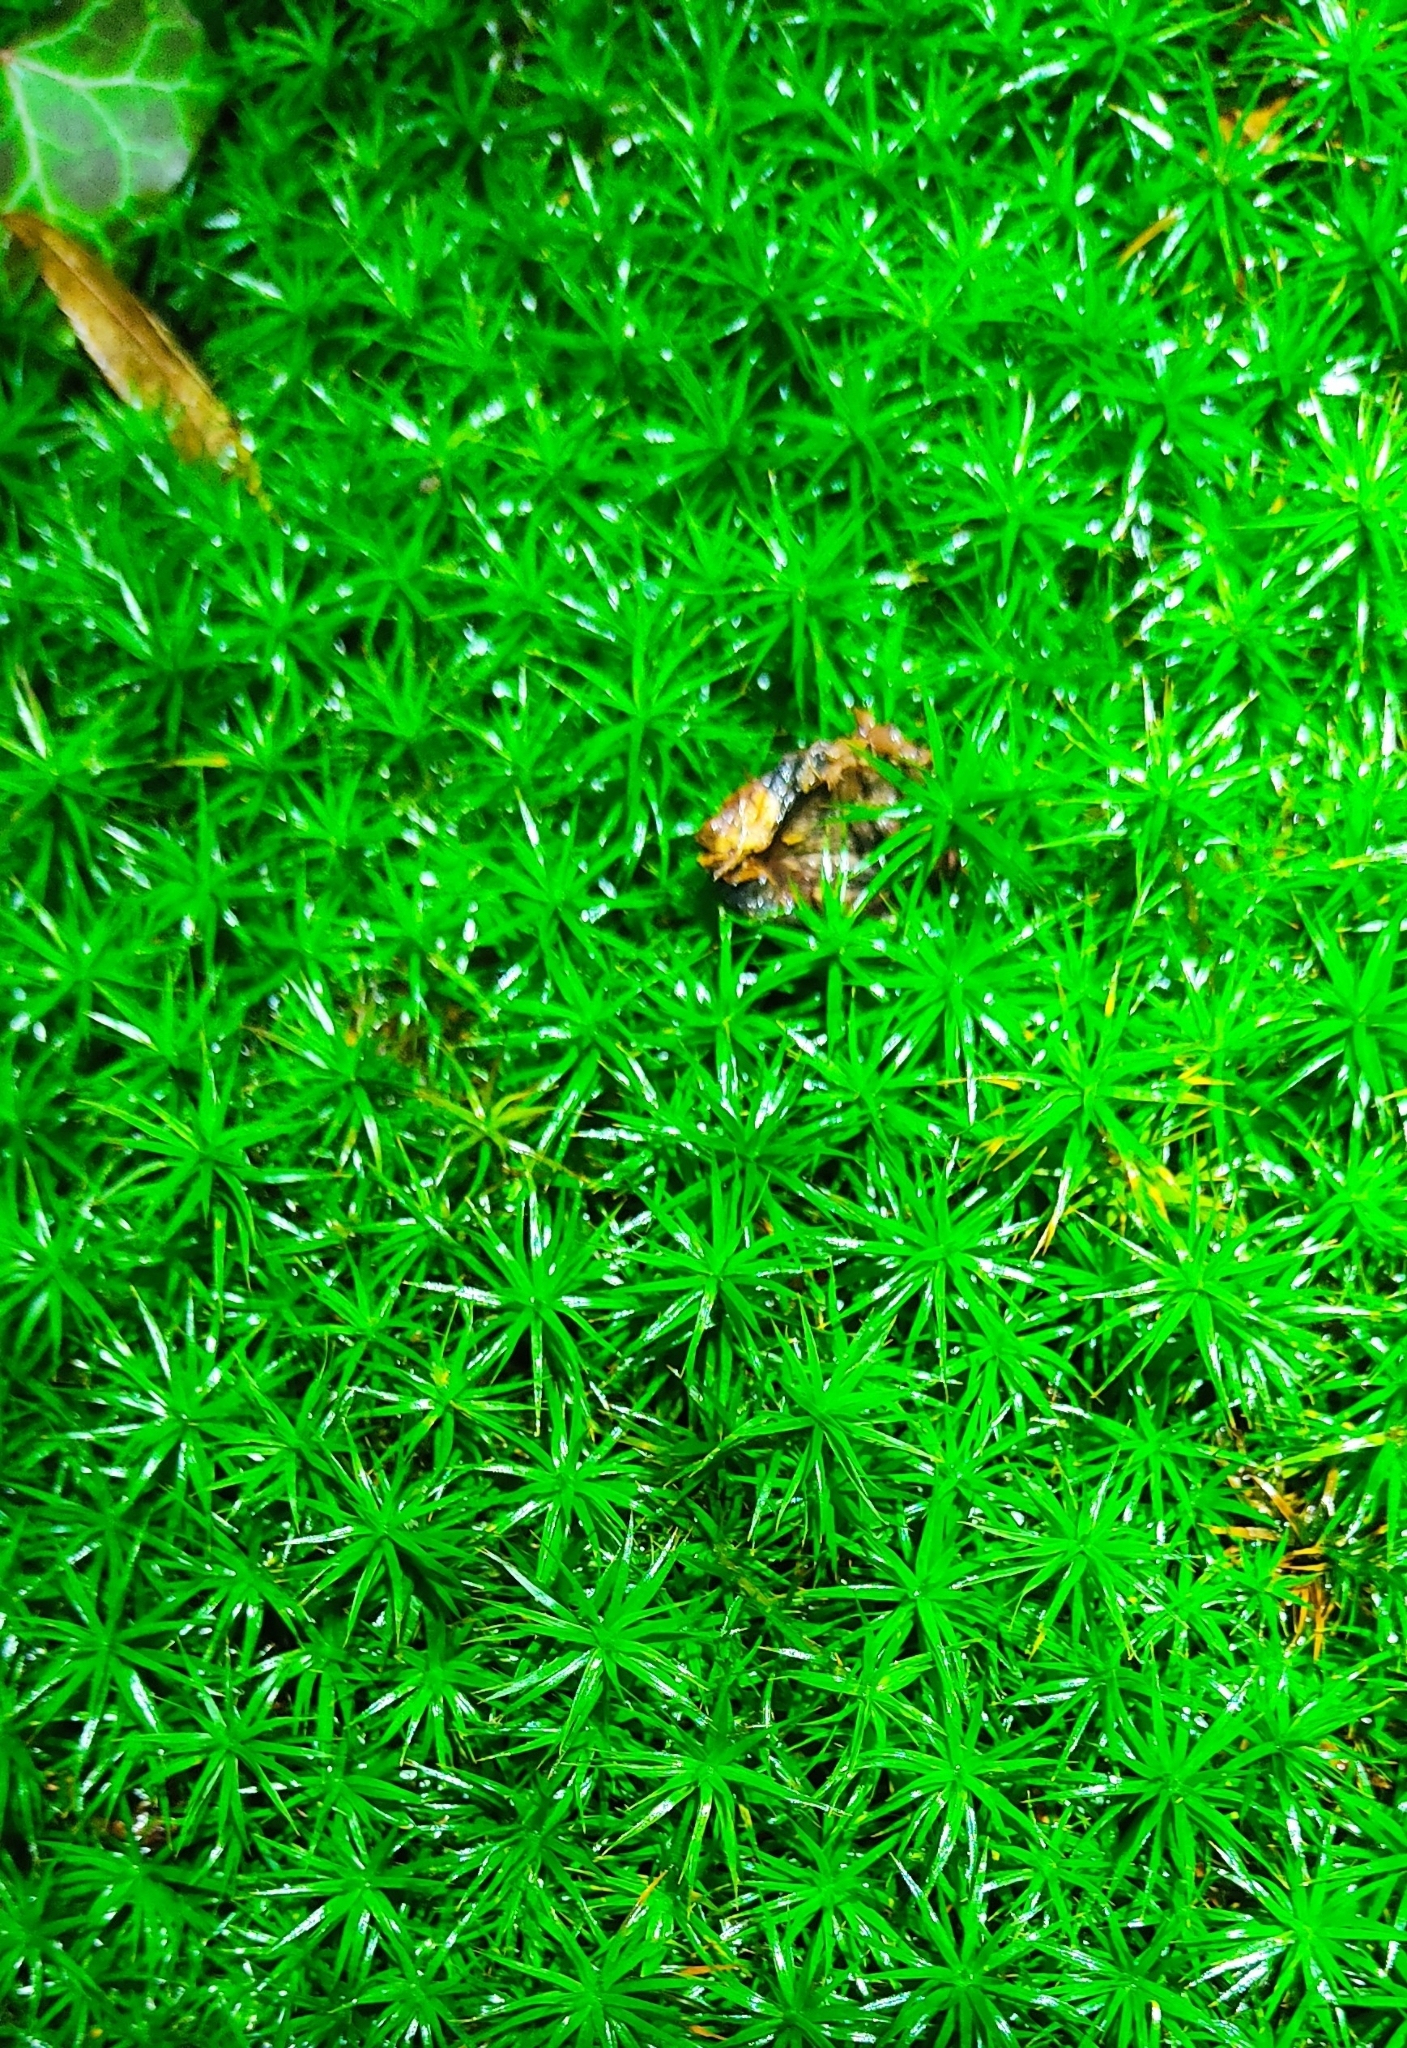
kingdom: Plantae
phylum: Bryophyta
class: Polytrichopsida
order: Polytrichales
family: Polytrichaceae
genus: Polytrichum
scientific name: Polytrichum formosum
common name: Bank haircap moss
